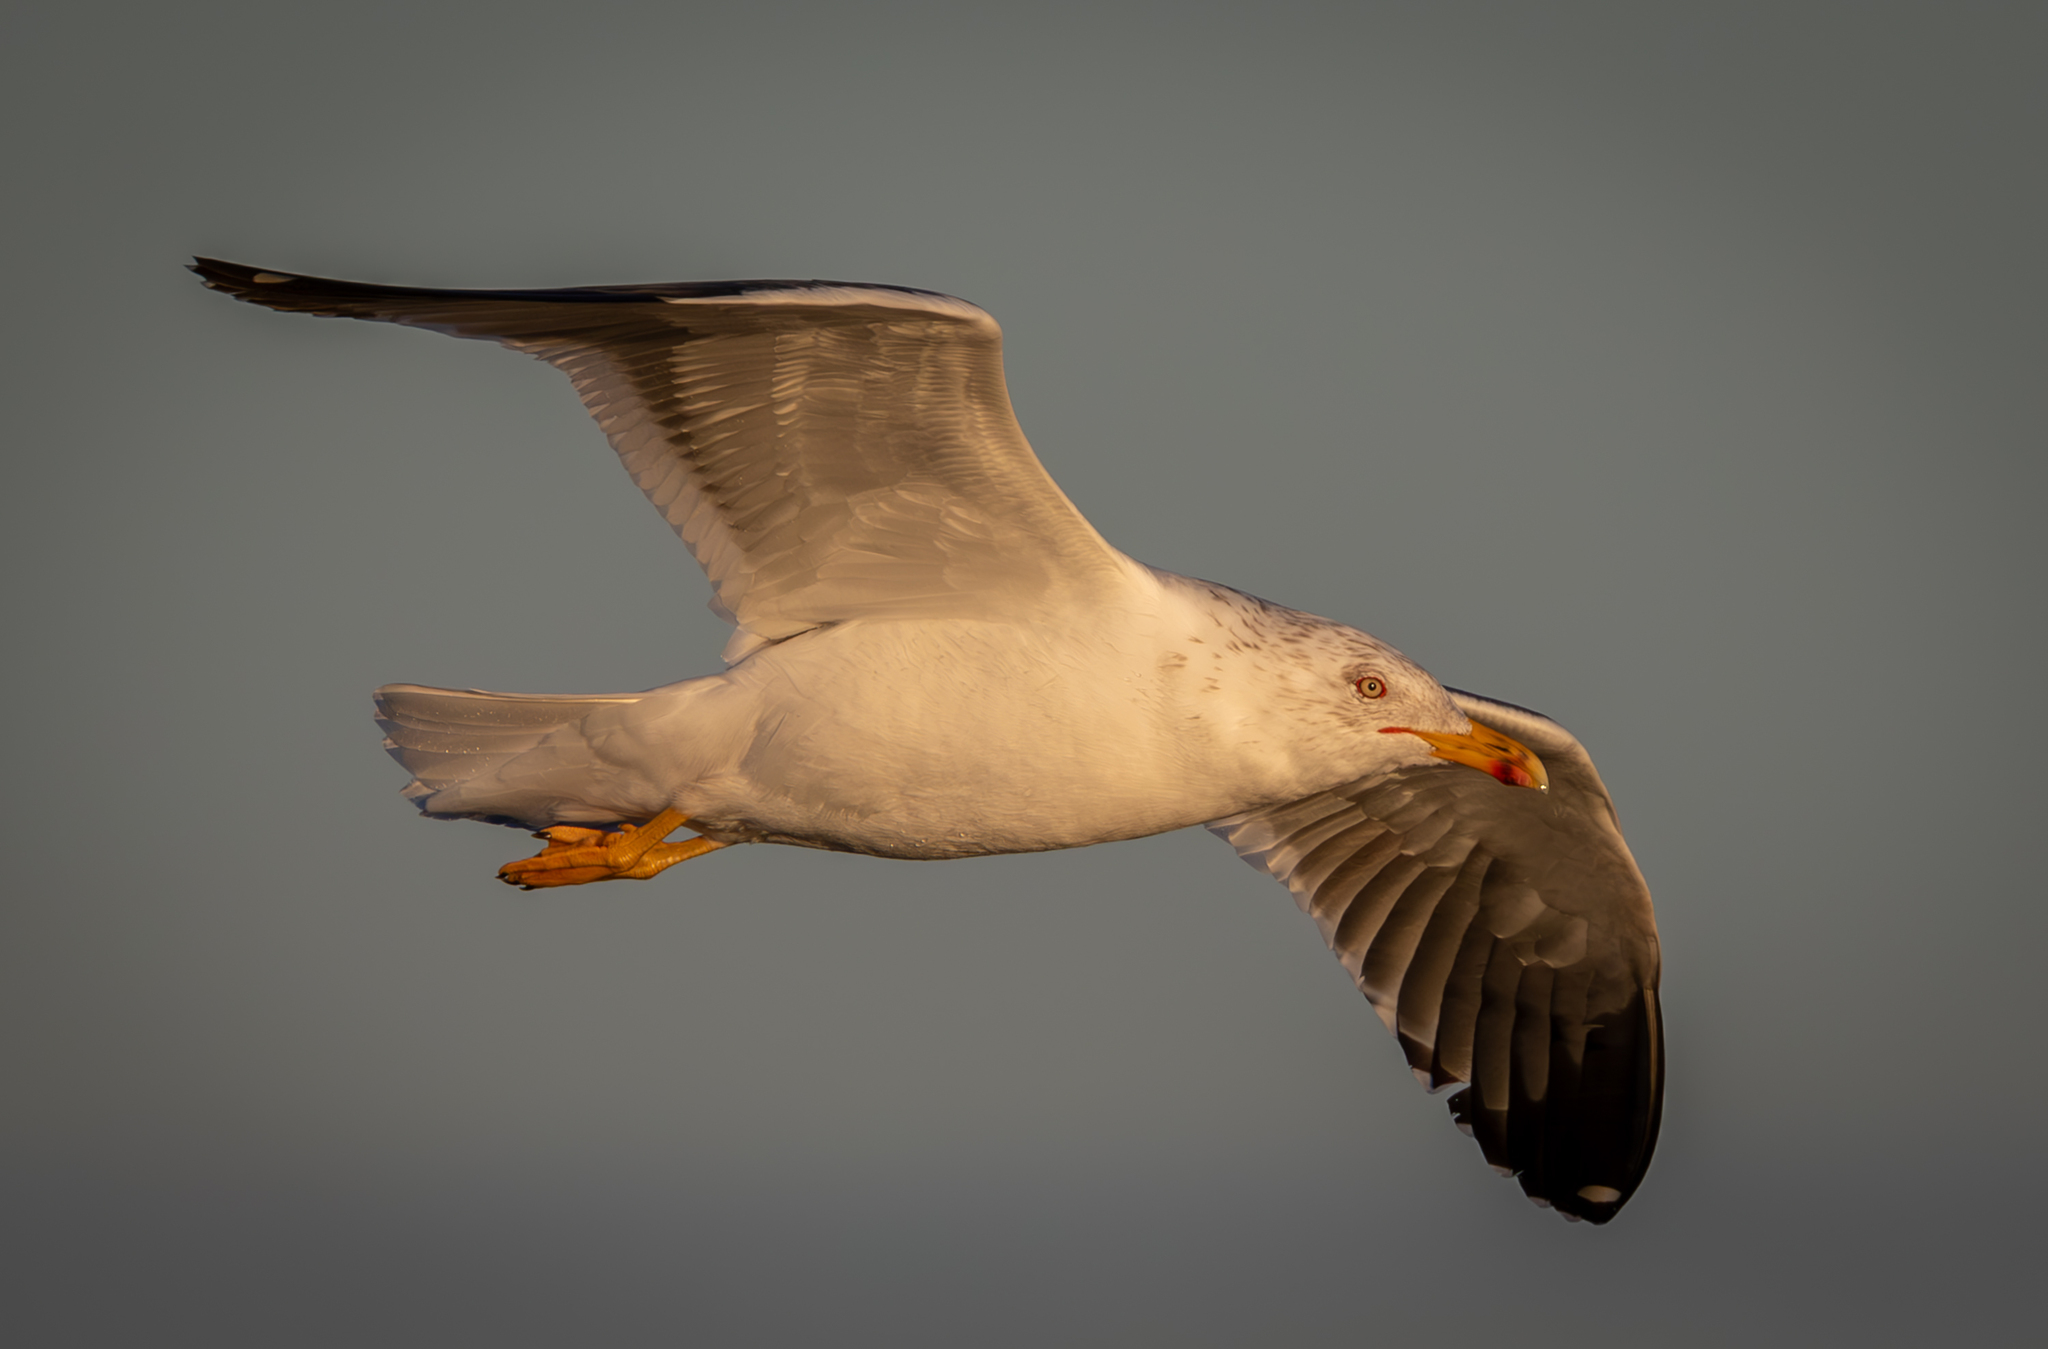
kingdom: Animalia
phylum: Chordata
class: Aves
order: Charadriiformes
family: Laridae
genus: Larus
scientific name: Larus fuscus
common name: Lesser black-backed gull
